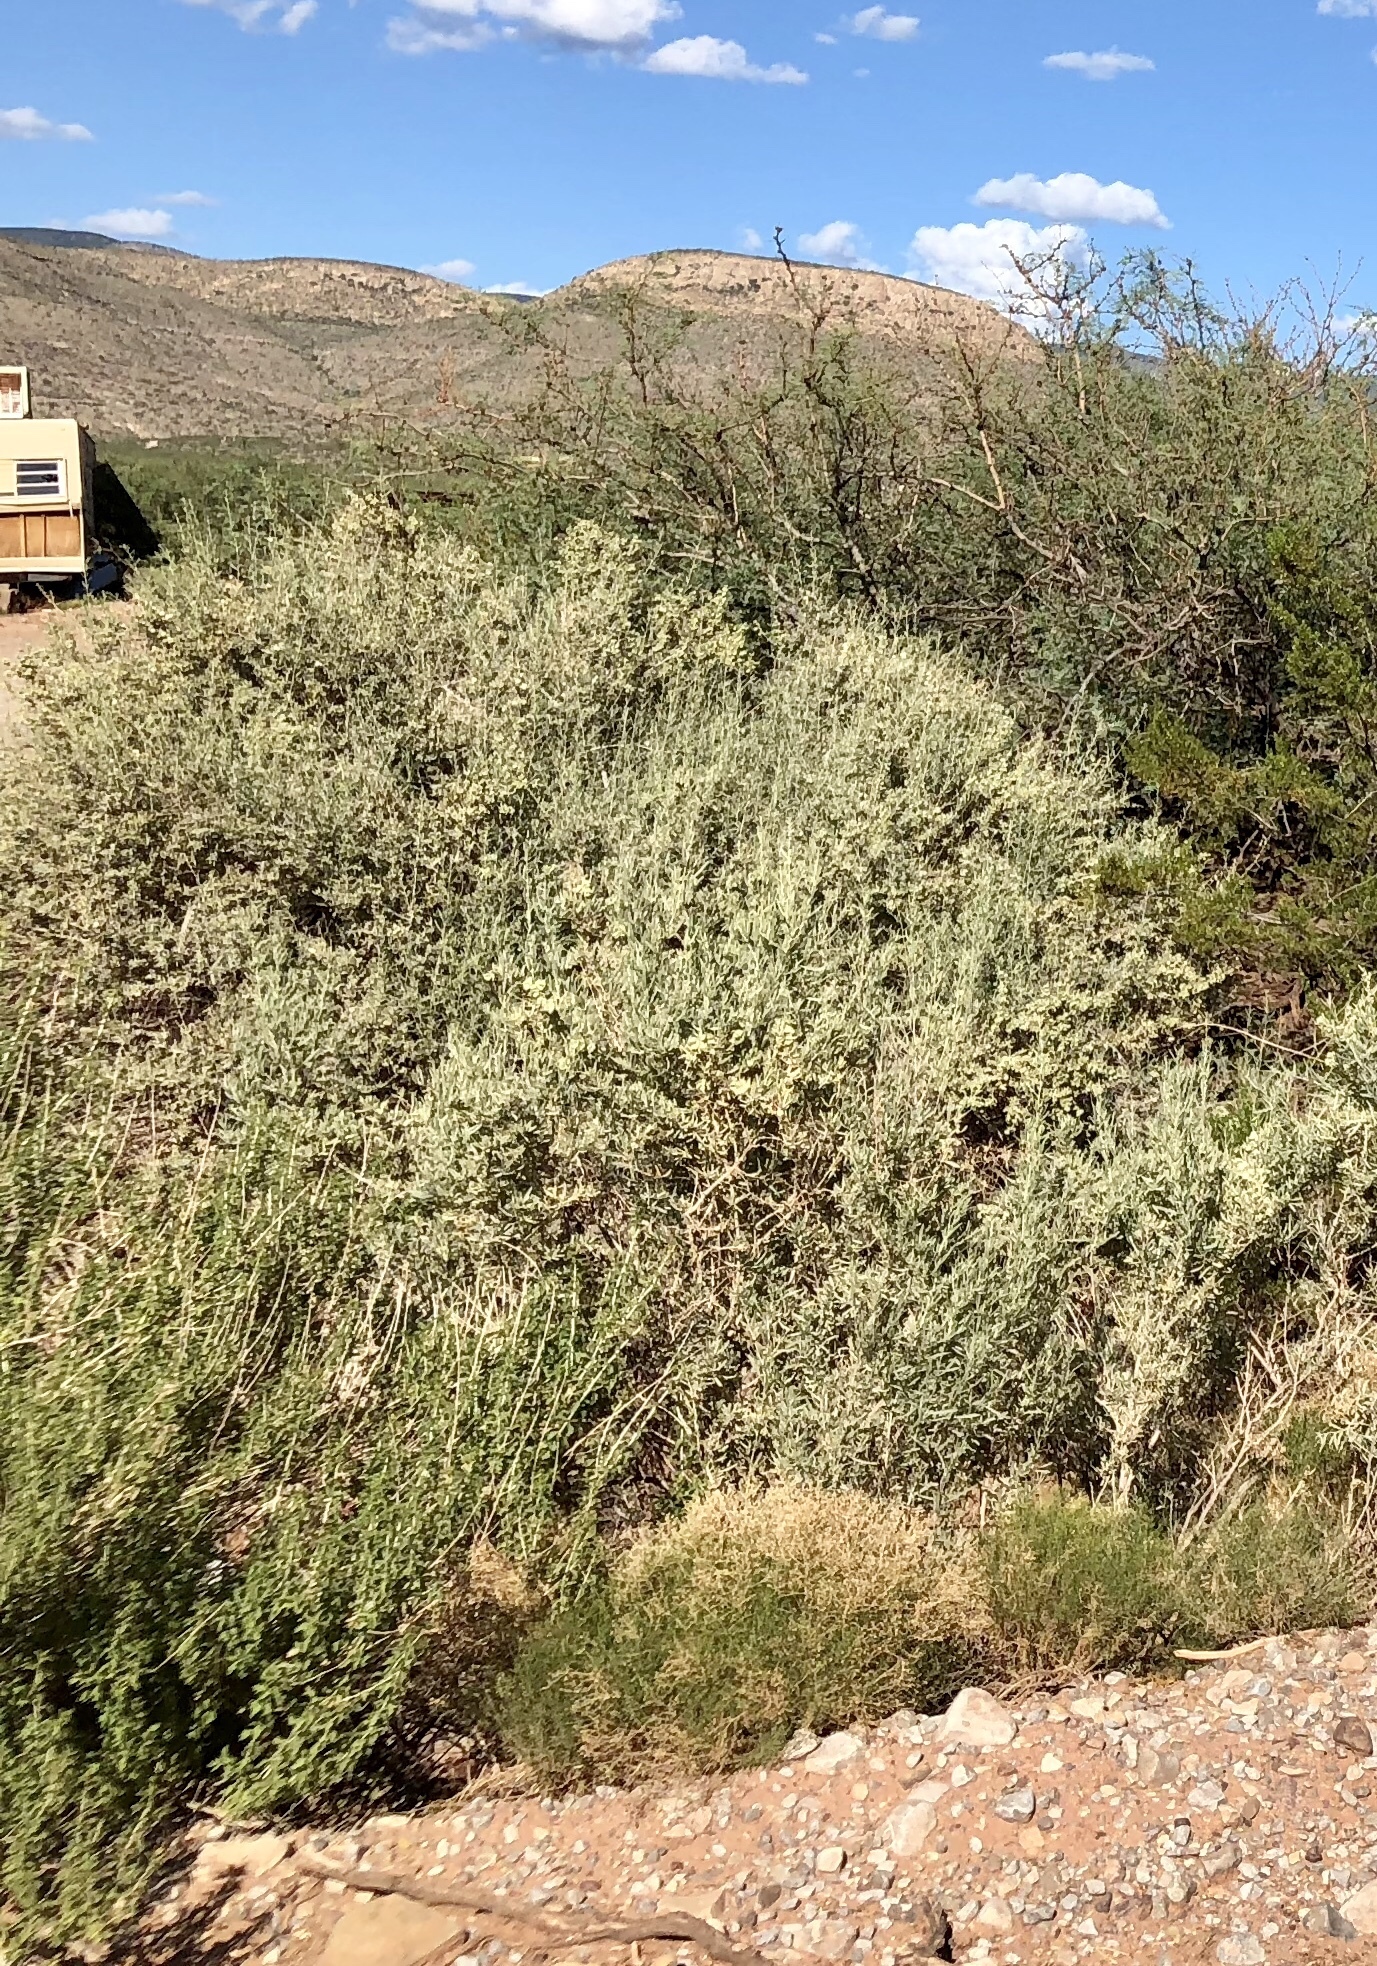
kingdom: Plantae
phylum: Tracheophyta
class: Magnoliopsida
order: Caryophyllales
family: Amaranthaceae
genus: Atriplex
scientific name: Atriplex canescens
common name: Four-wing saltbush
